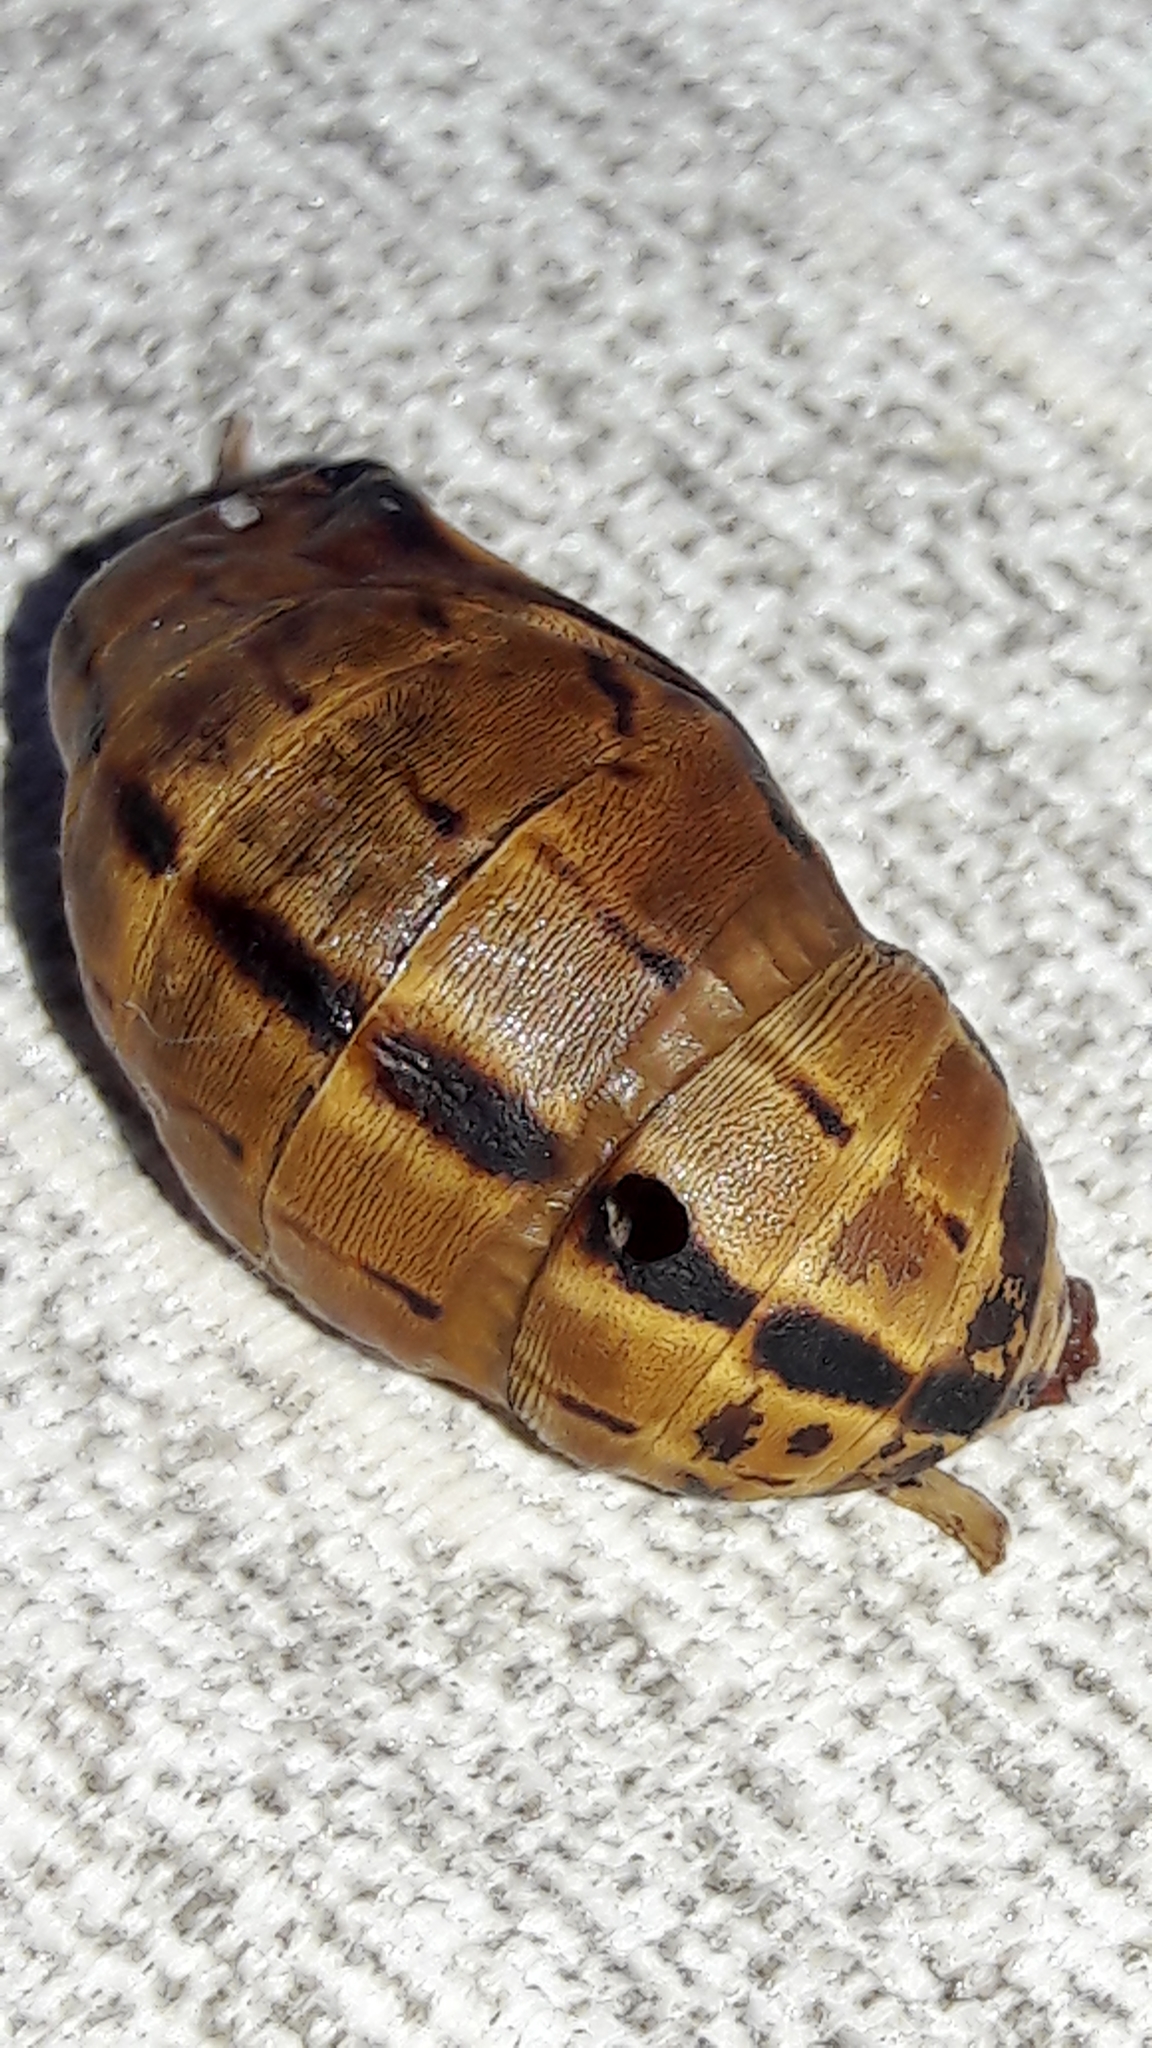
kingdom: Animalia
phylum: Arthropoda
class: Insecta
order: Lepidoptera
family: Nymphalidae
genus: Brassolis
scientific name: Brassolis sophorae
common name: Coconut caterpillar
